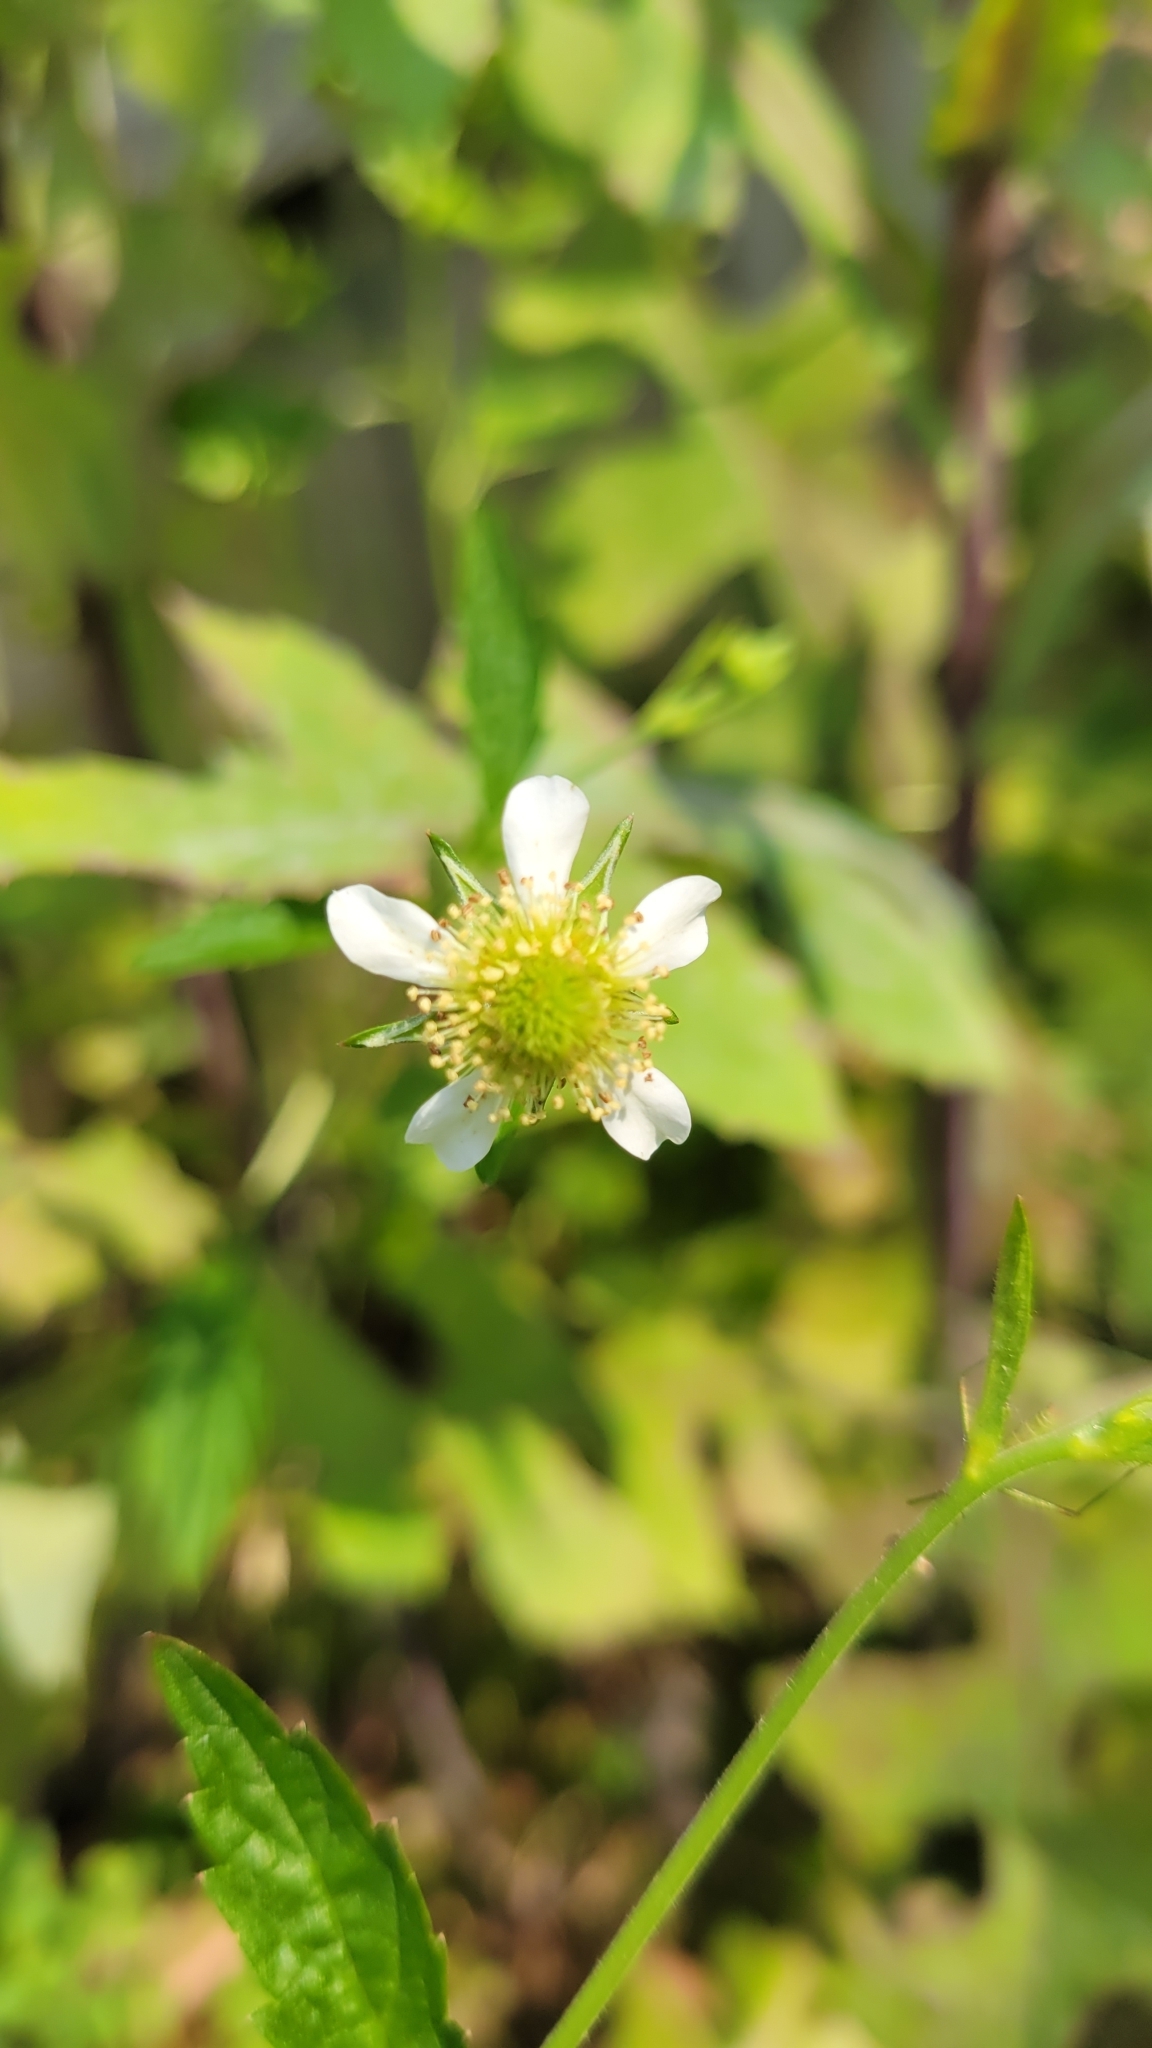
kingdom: Plantae
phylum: Tracheophyta
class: Magnoliopsida
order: Rosales
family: Rosaceae
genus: Geum
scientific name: Geum canadense
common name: White avens
